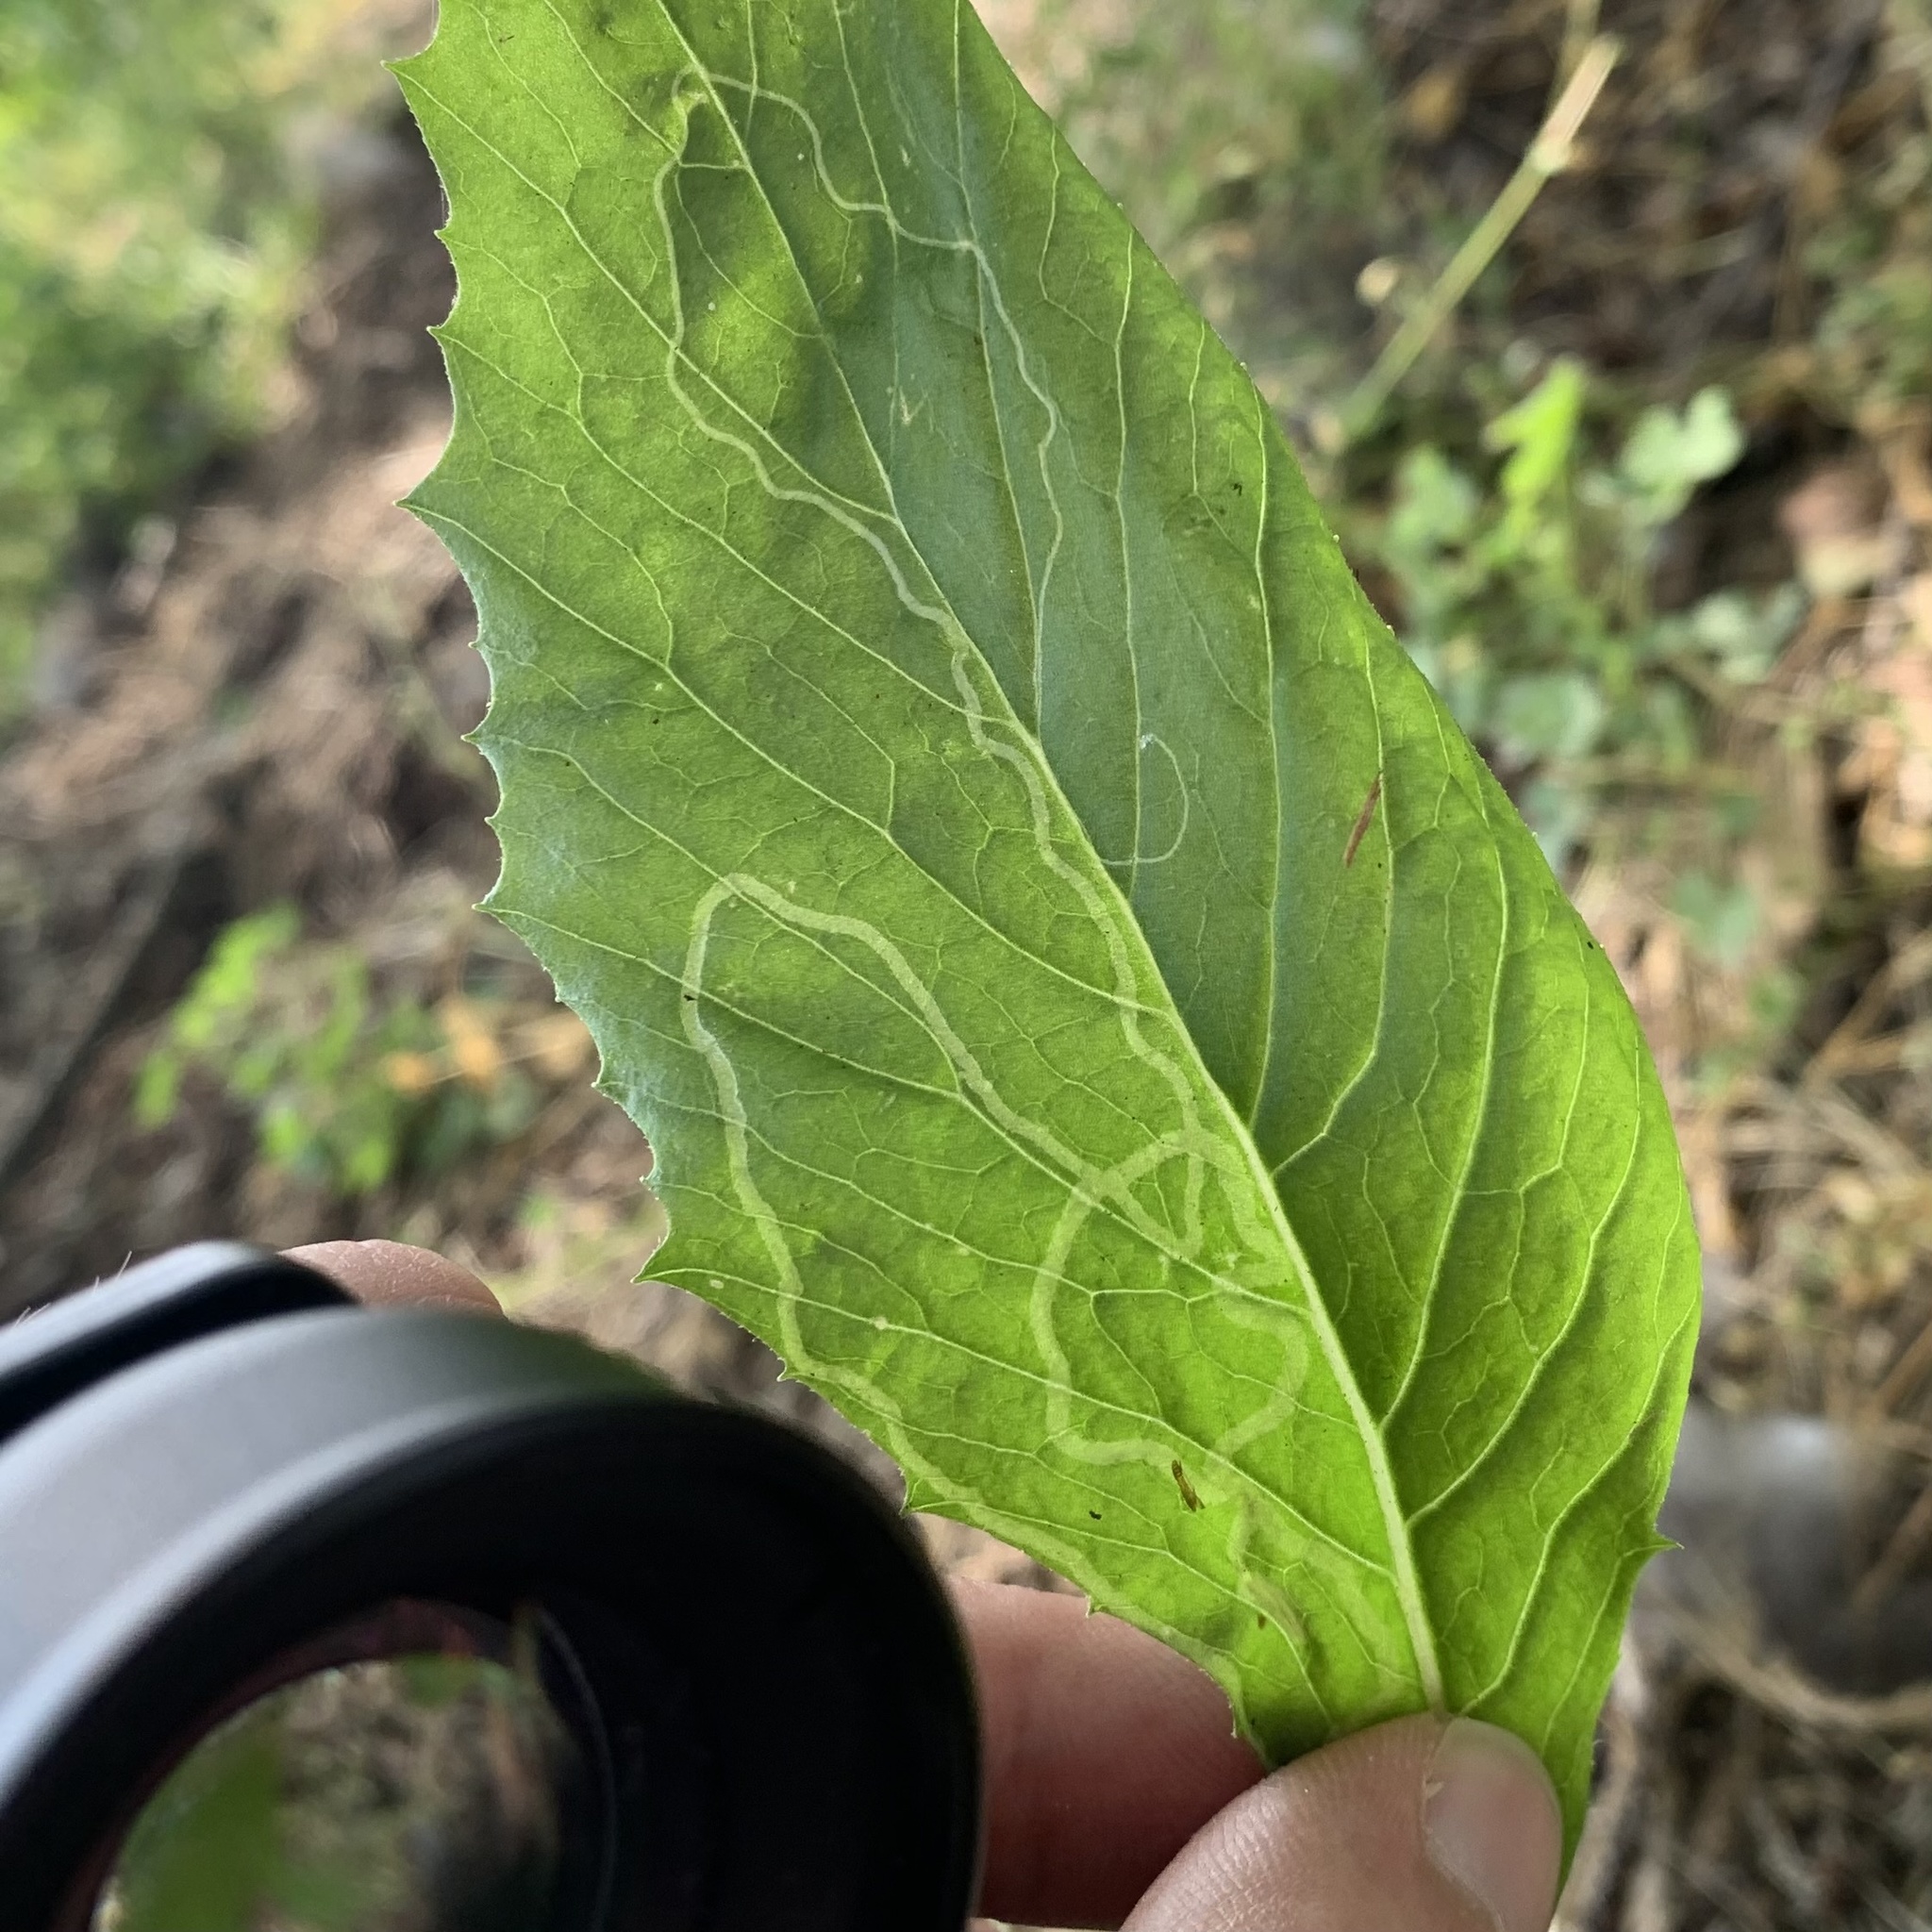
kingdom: Animalia
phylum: Arthropoda
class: Insecta
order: Lepidoptera
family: Gracillariidae
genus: Phyllocnistis
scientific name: Phyllocnistis insignis
